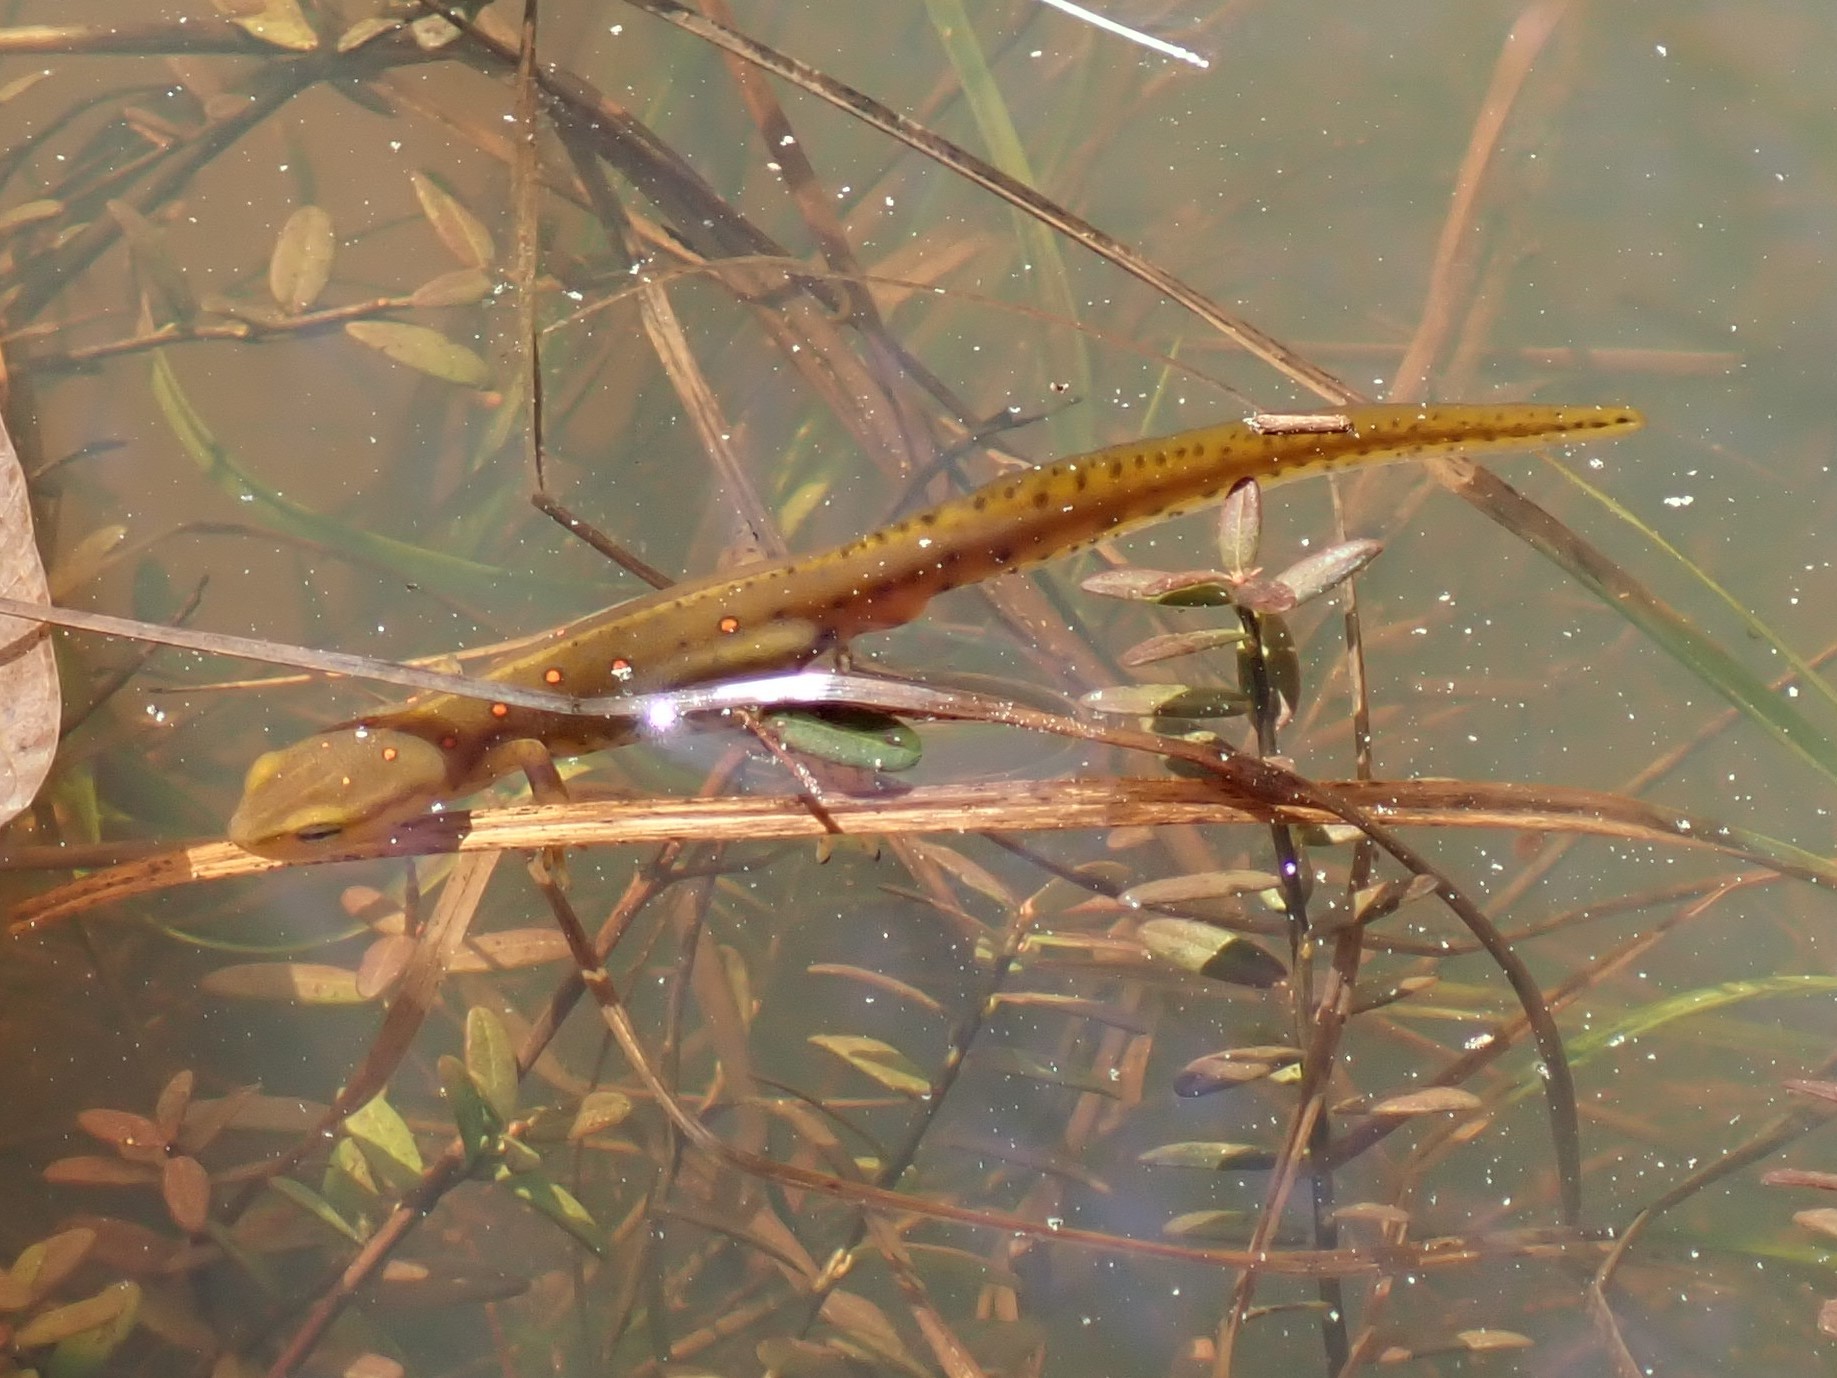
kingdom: Animalia
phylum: Chordata
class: Amphibia
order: Caudata
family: Salamandridae
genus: Notophthalmus
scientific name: Notophthalmus viridescens
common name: Eastern newt
